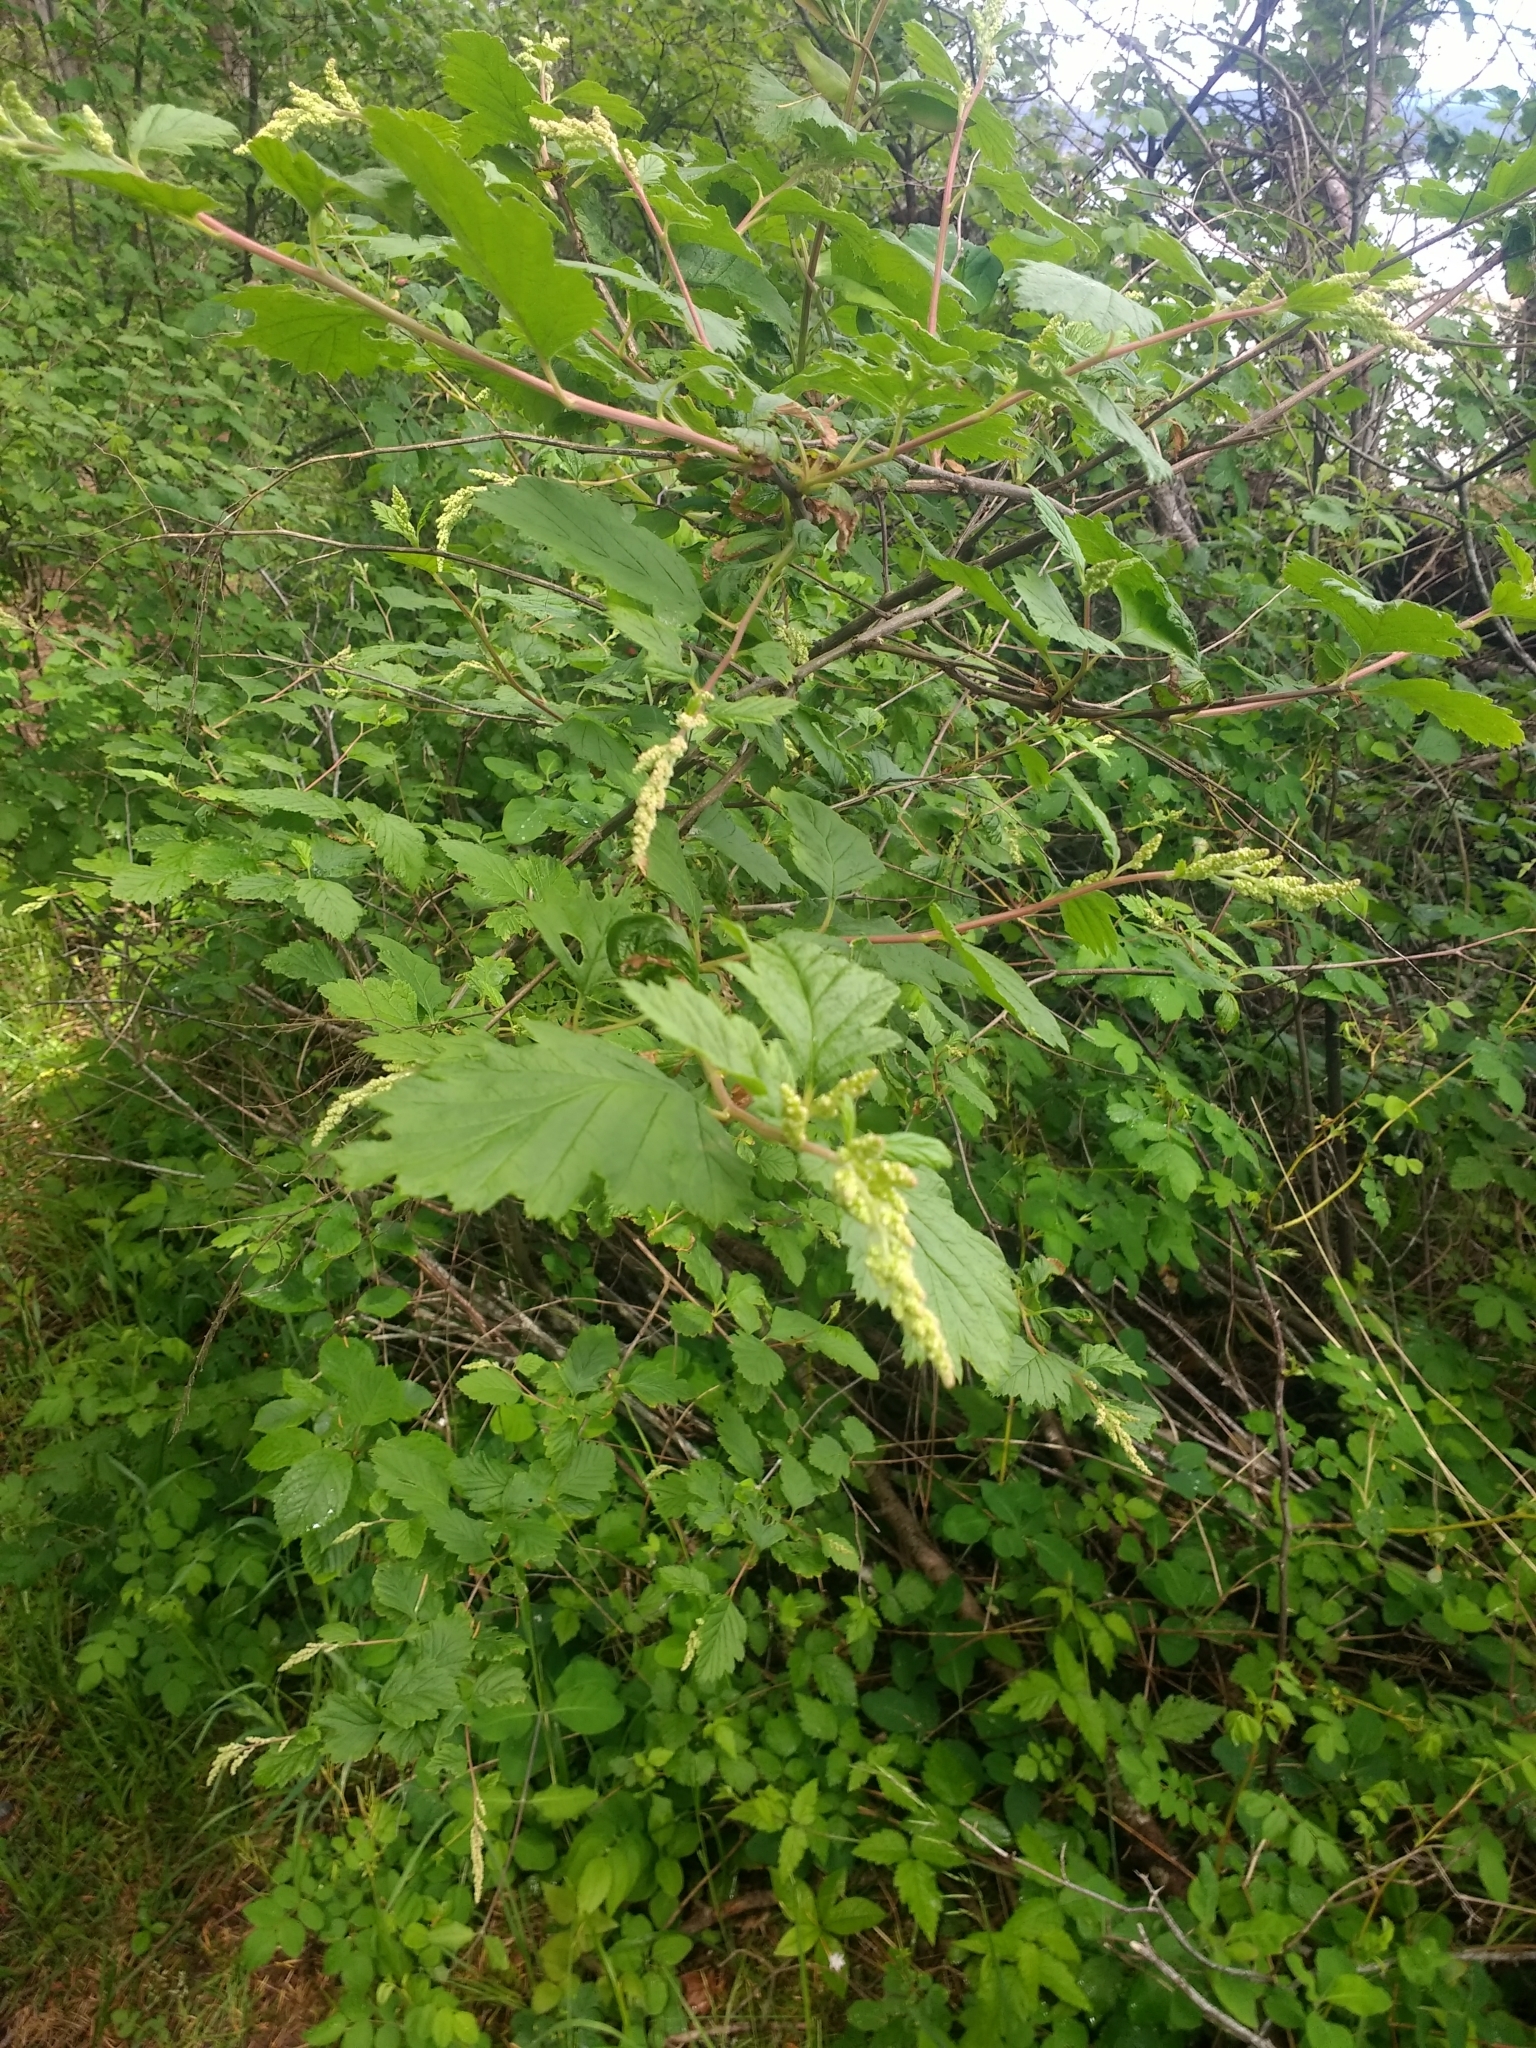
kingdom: Plantae
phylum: Tracheophyta
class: Magnoliopsida
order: Rosales
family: Rosaceae
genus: Holodiscus
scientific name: Holodiscus discolor
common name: Oceanspray
